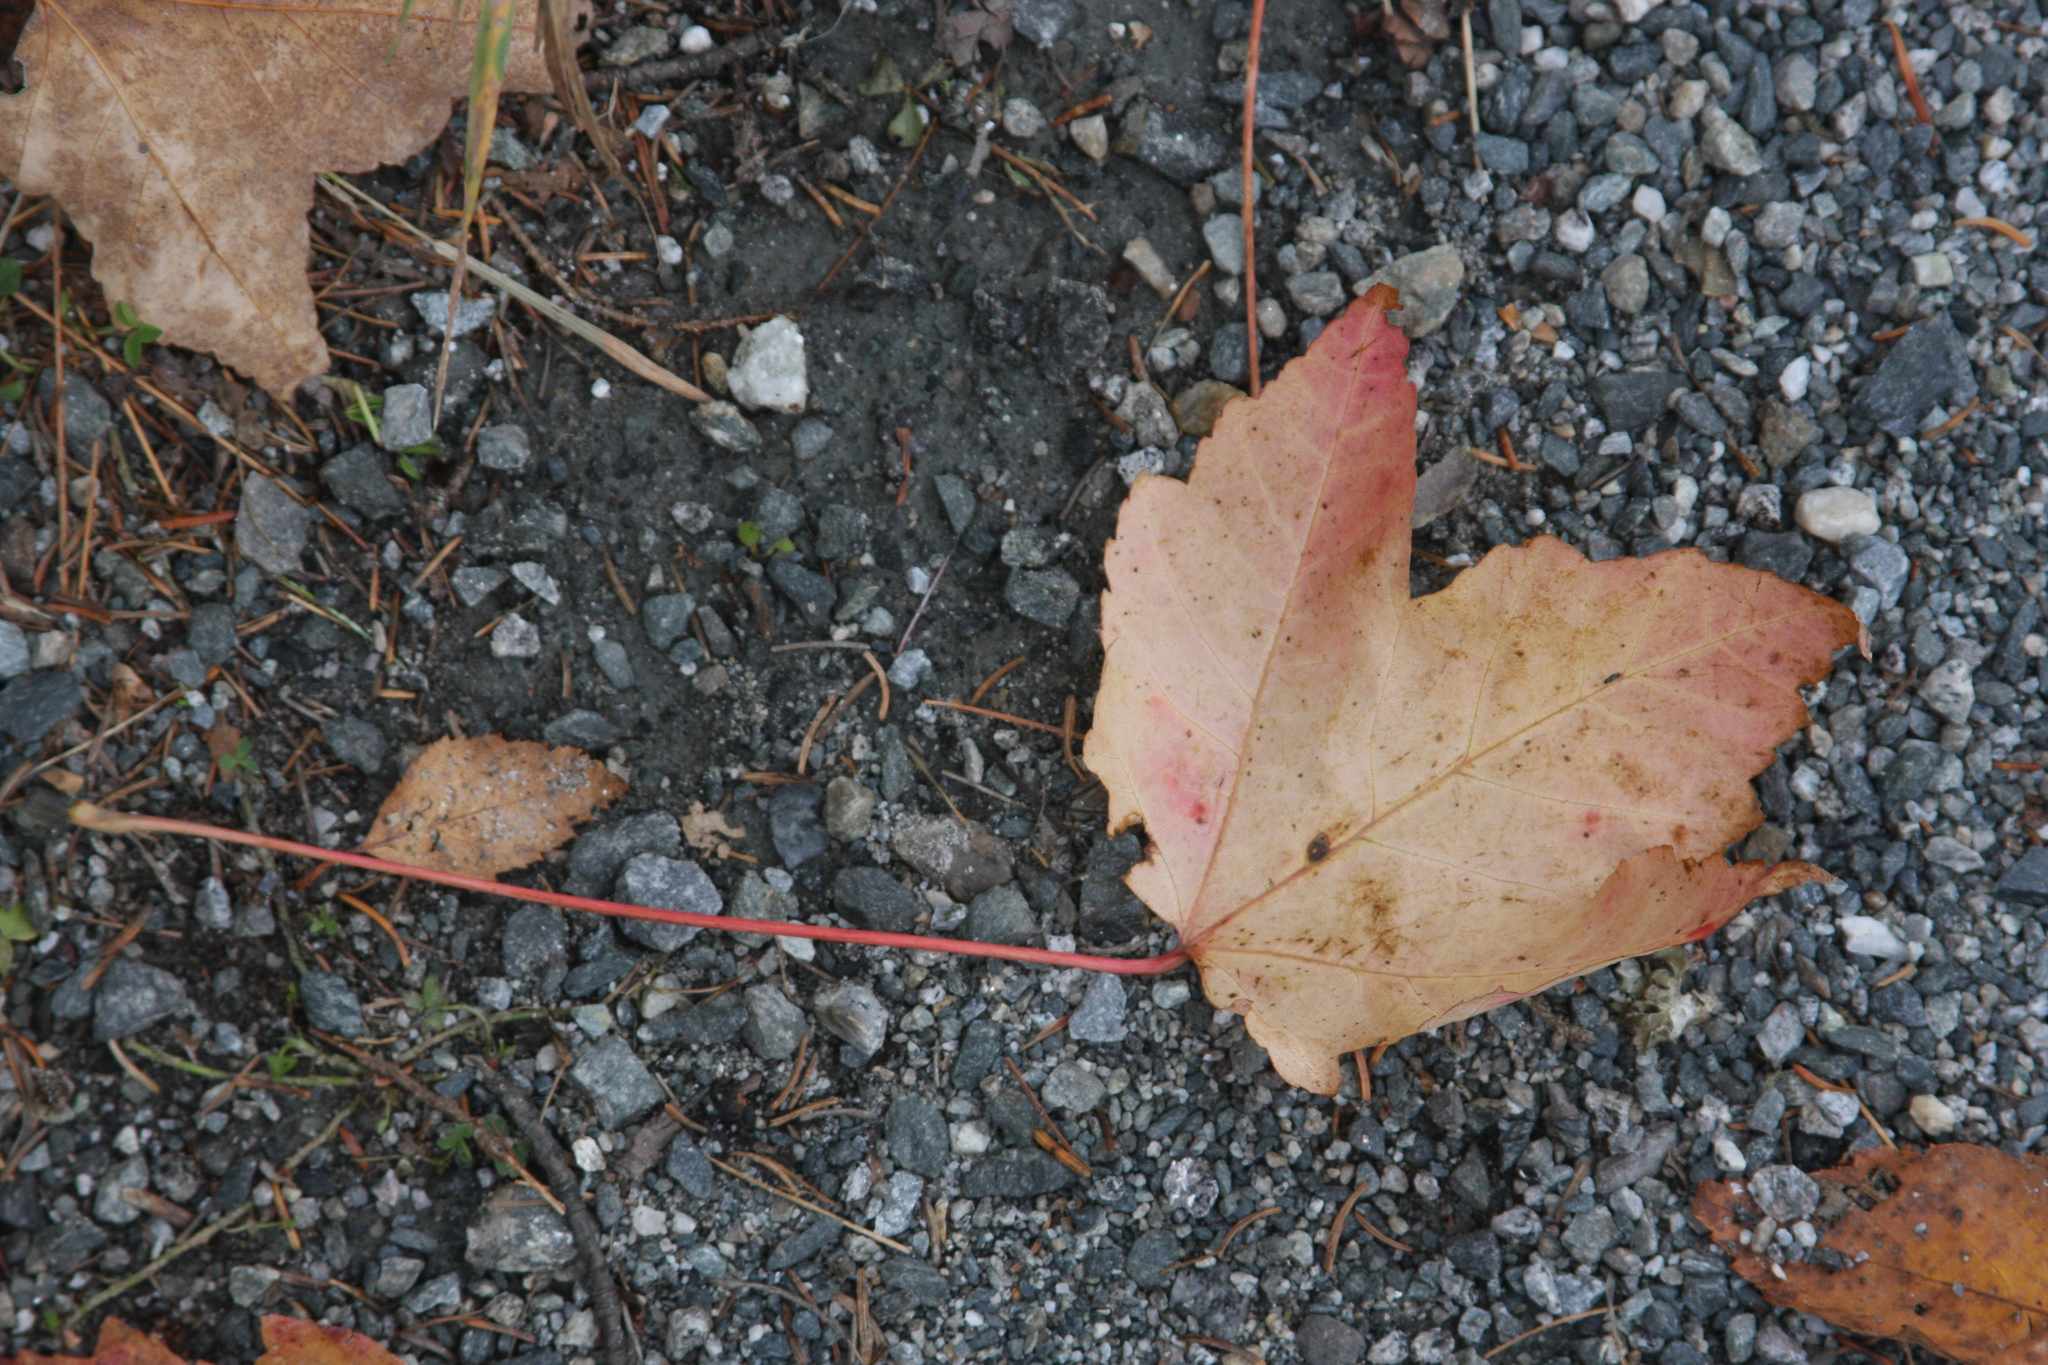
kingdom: Plantae
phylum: Tracheophyta
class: Magnoliopsida
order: Sapindales
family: Sapindaceae
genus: Acer
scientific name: Acer rubrum
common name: Red maple
